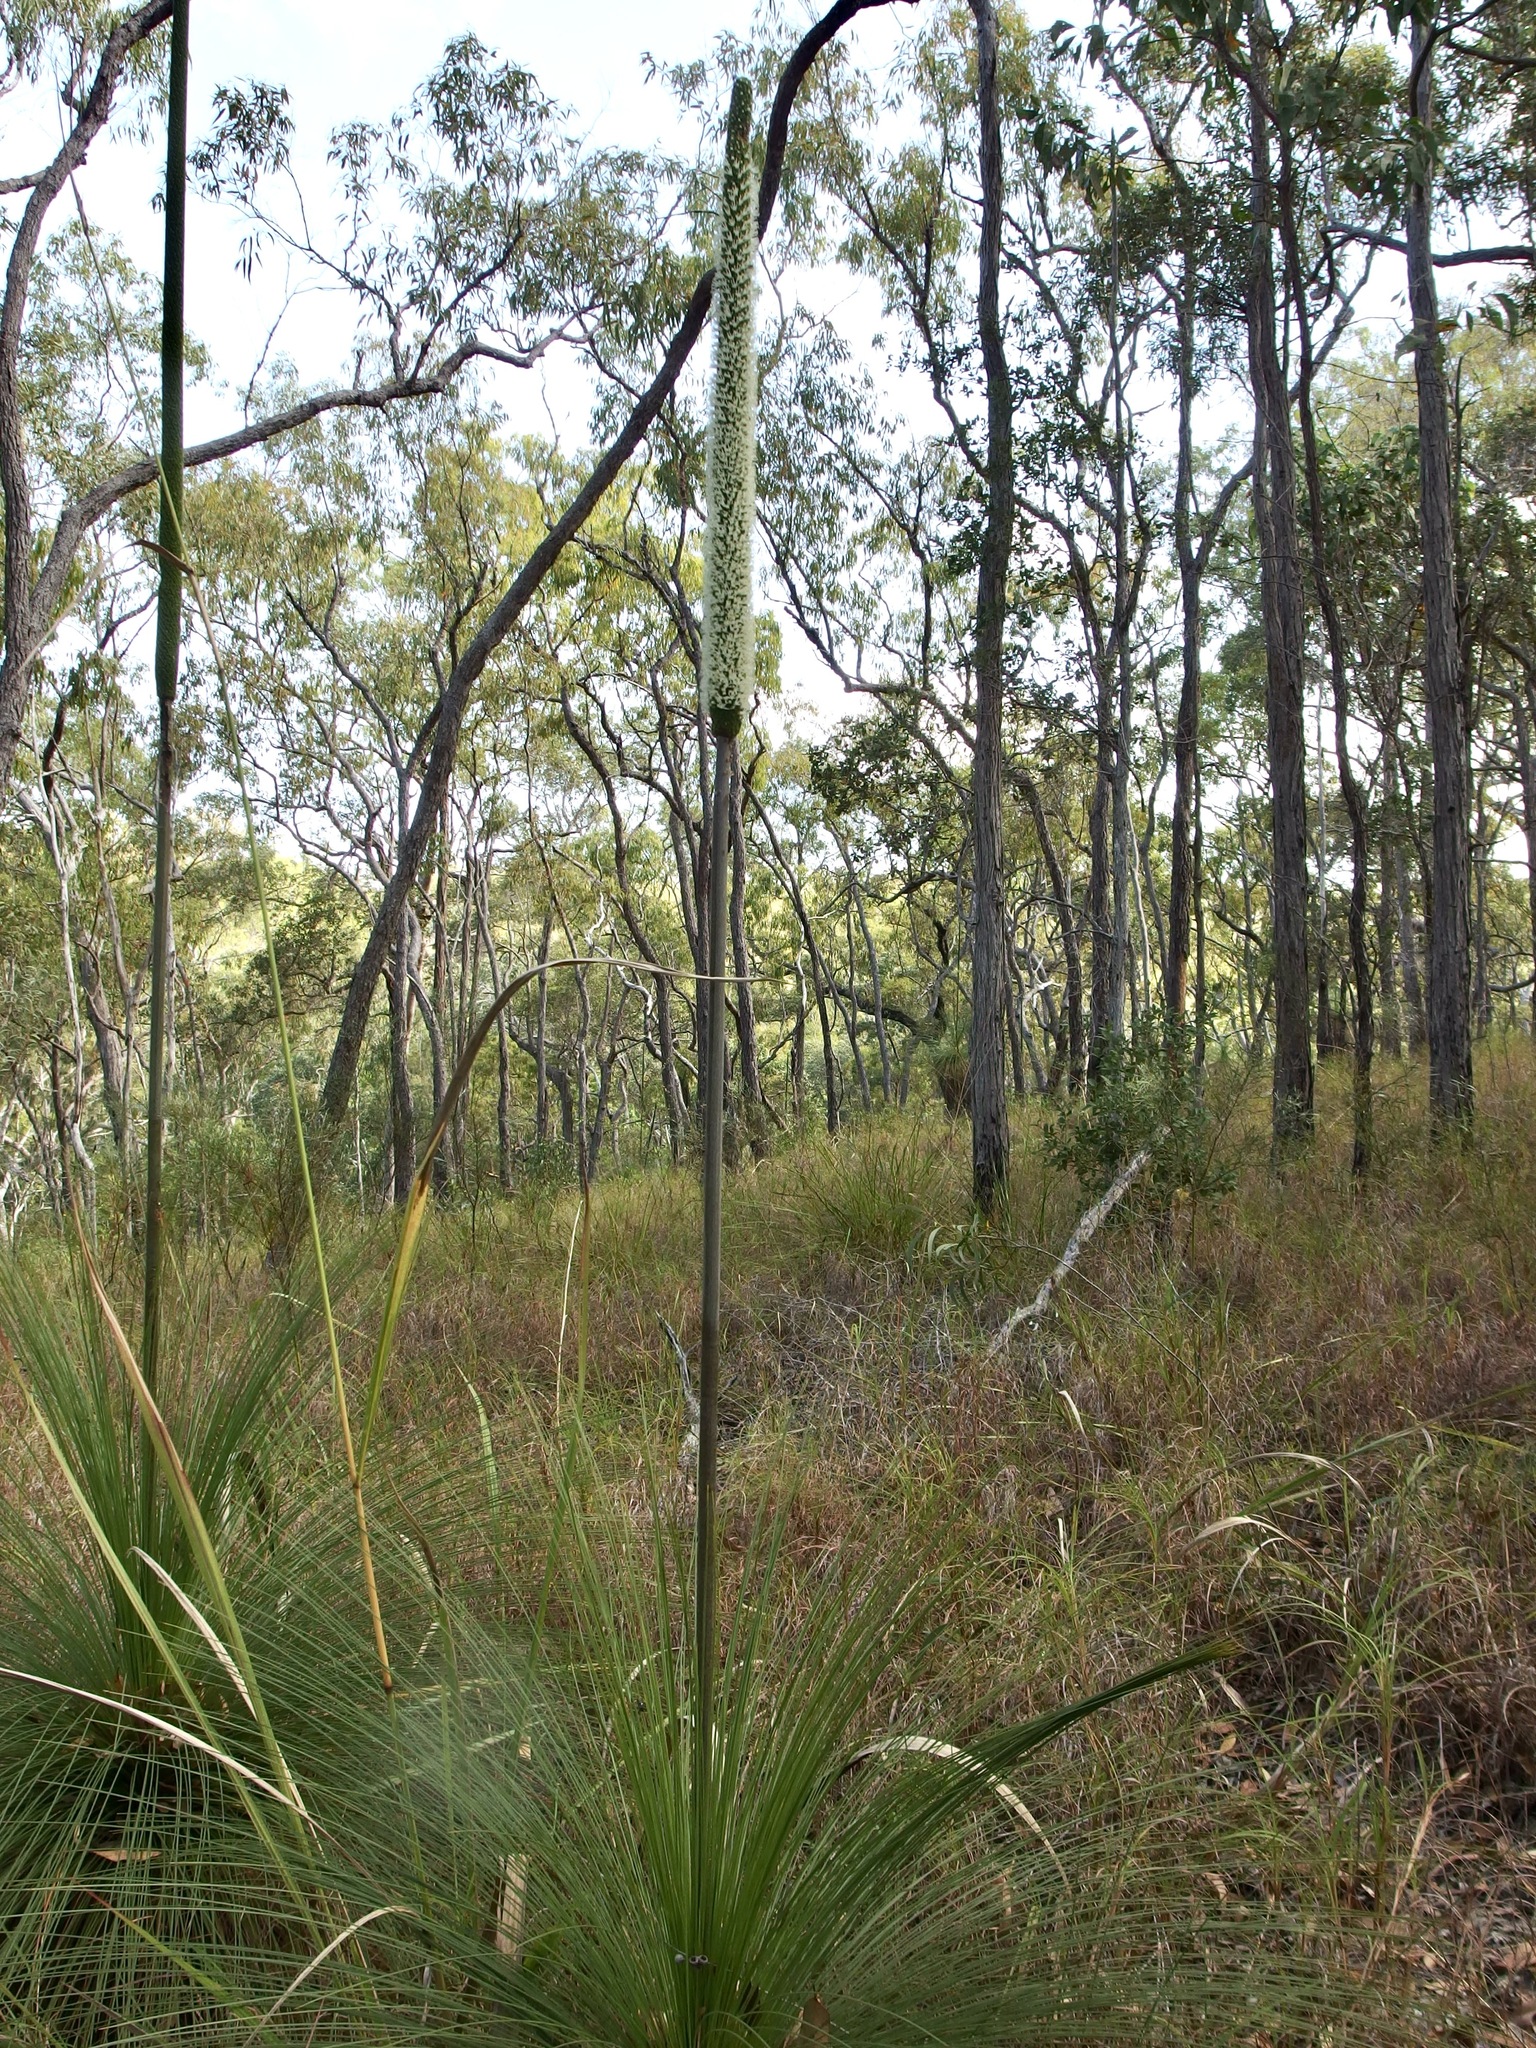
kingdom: Plantae
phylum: Tracheophyta
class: Liliopsida
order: Asparagales
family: Asphodelaceae
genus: Xanthorrhoea
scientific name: Xanthorrhoea johnsonii
